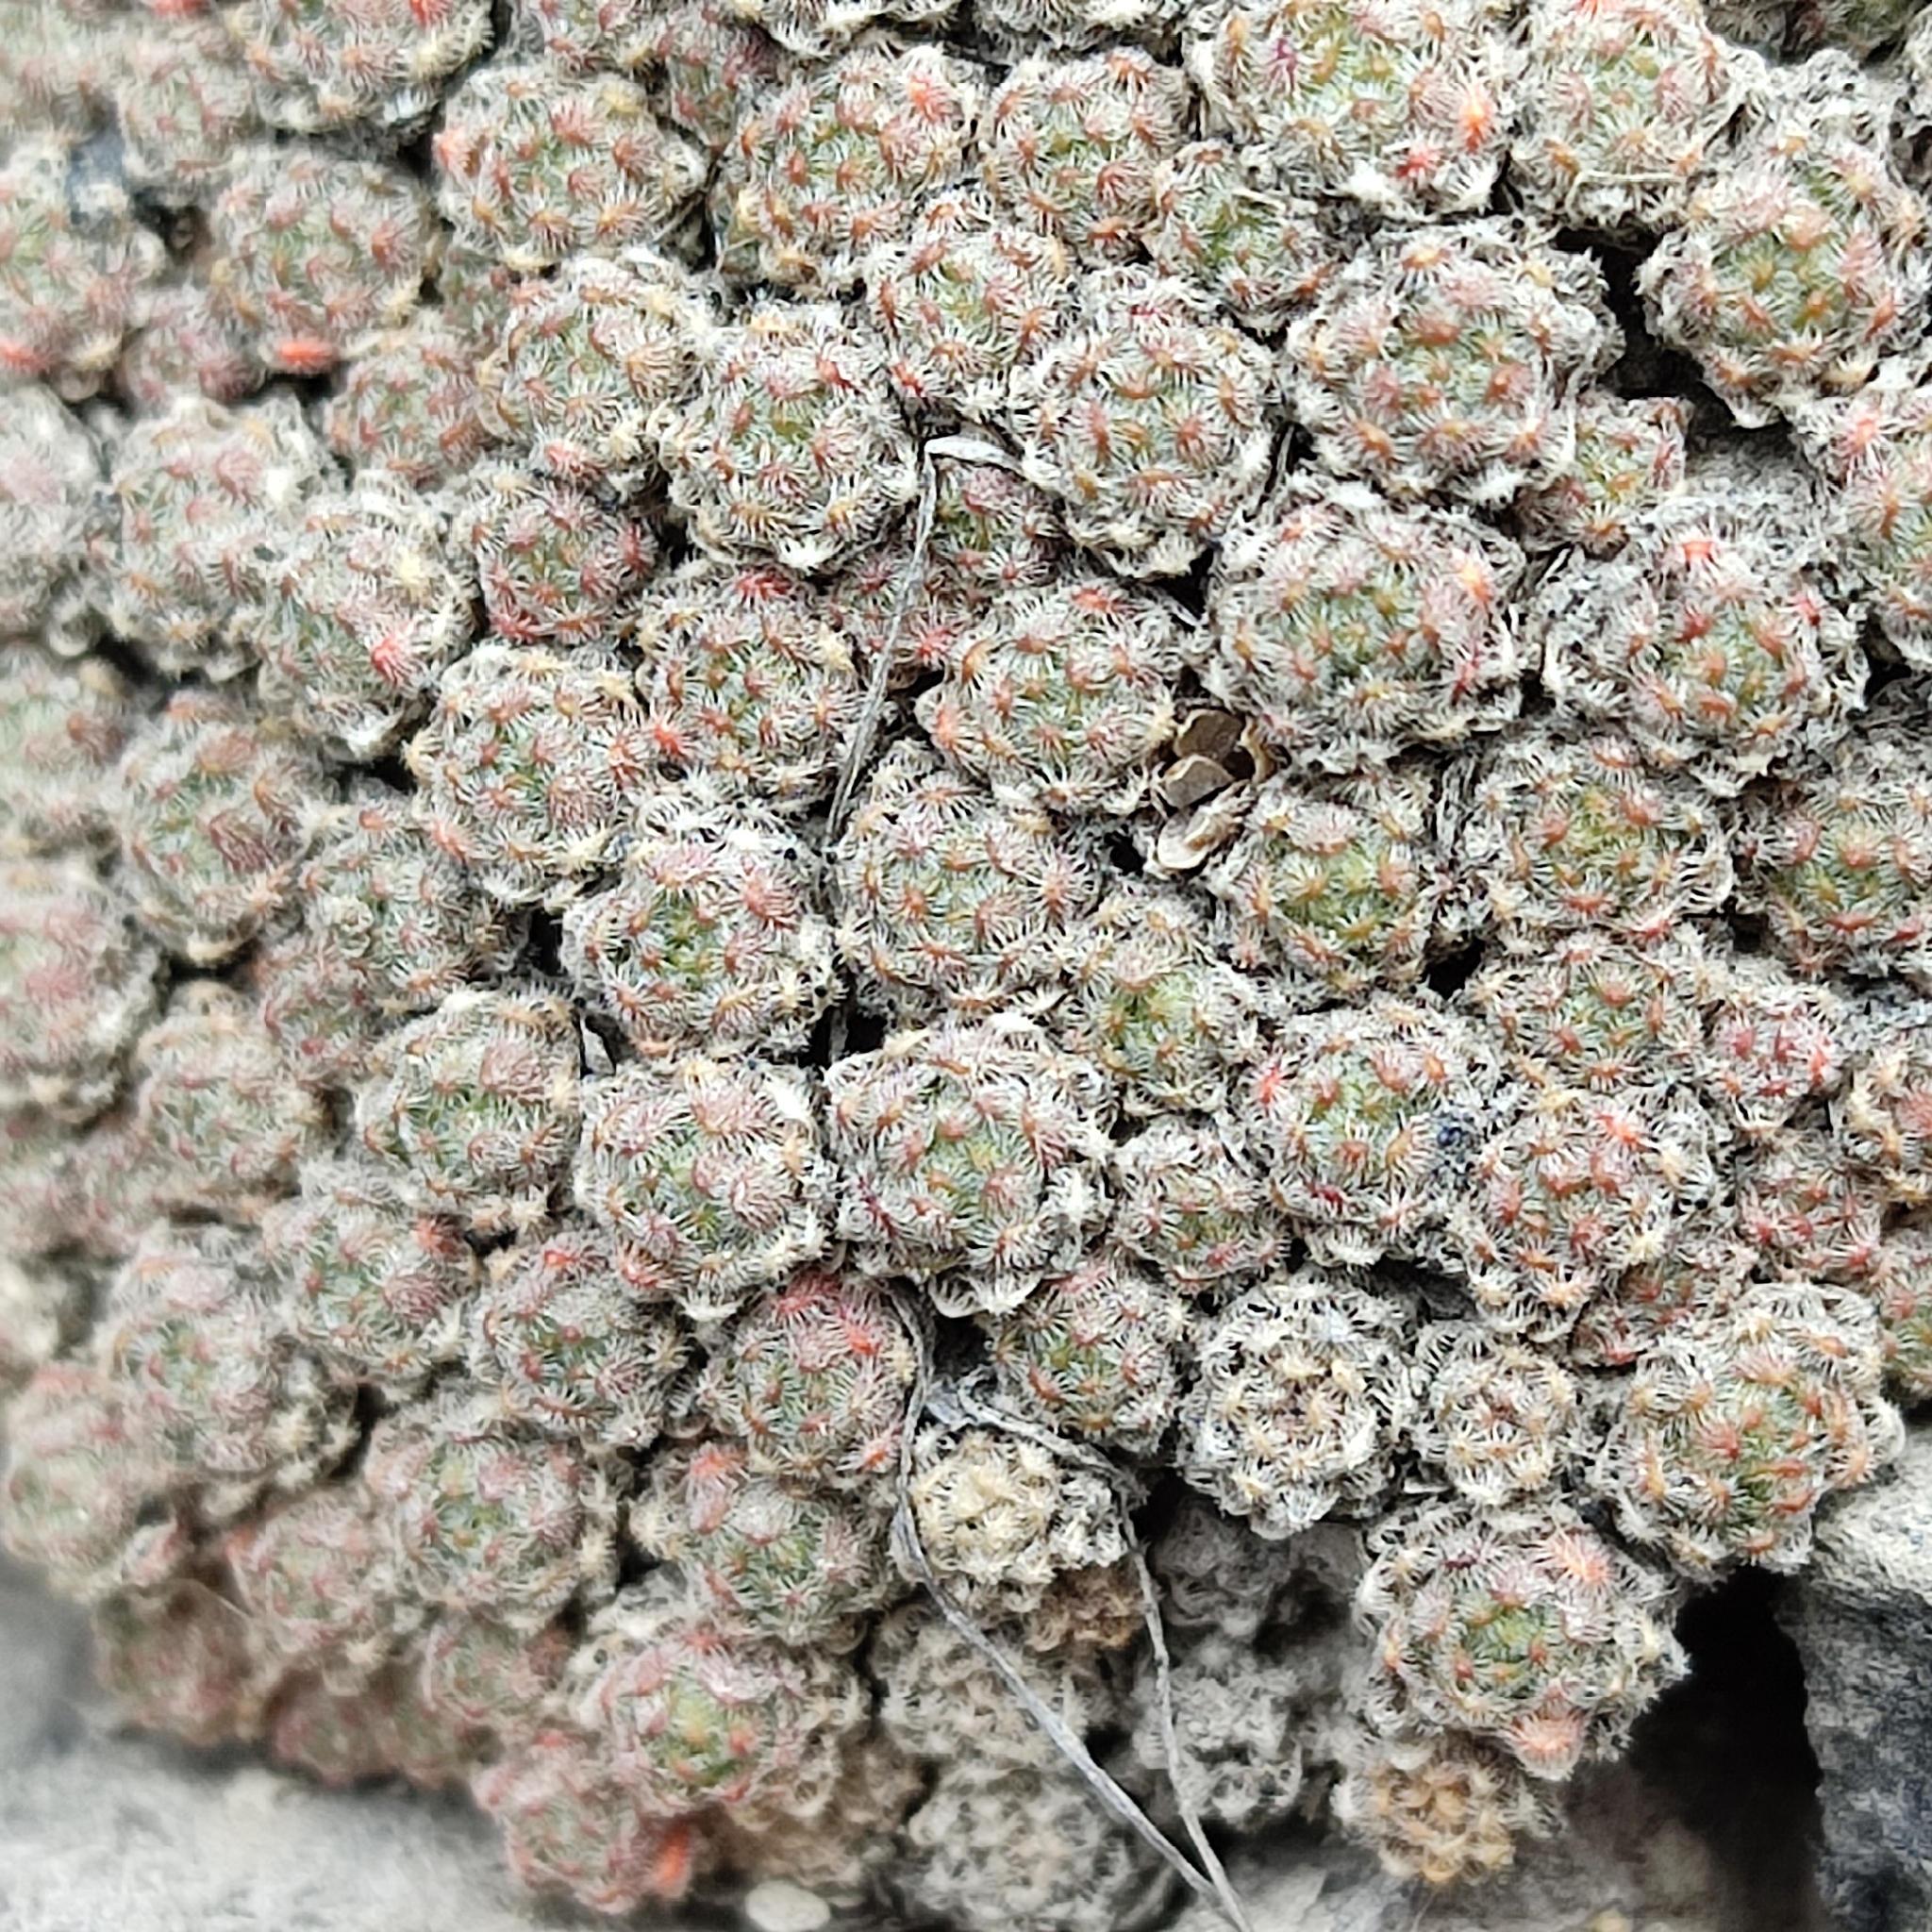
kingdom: Plantae
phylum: Tracheophyta
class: Magnoliopsida
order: Ericales
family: Primulaceae
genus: Androsace
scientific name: Androsace helvetica
